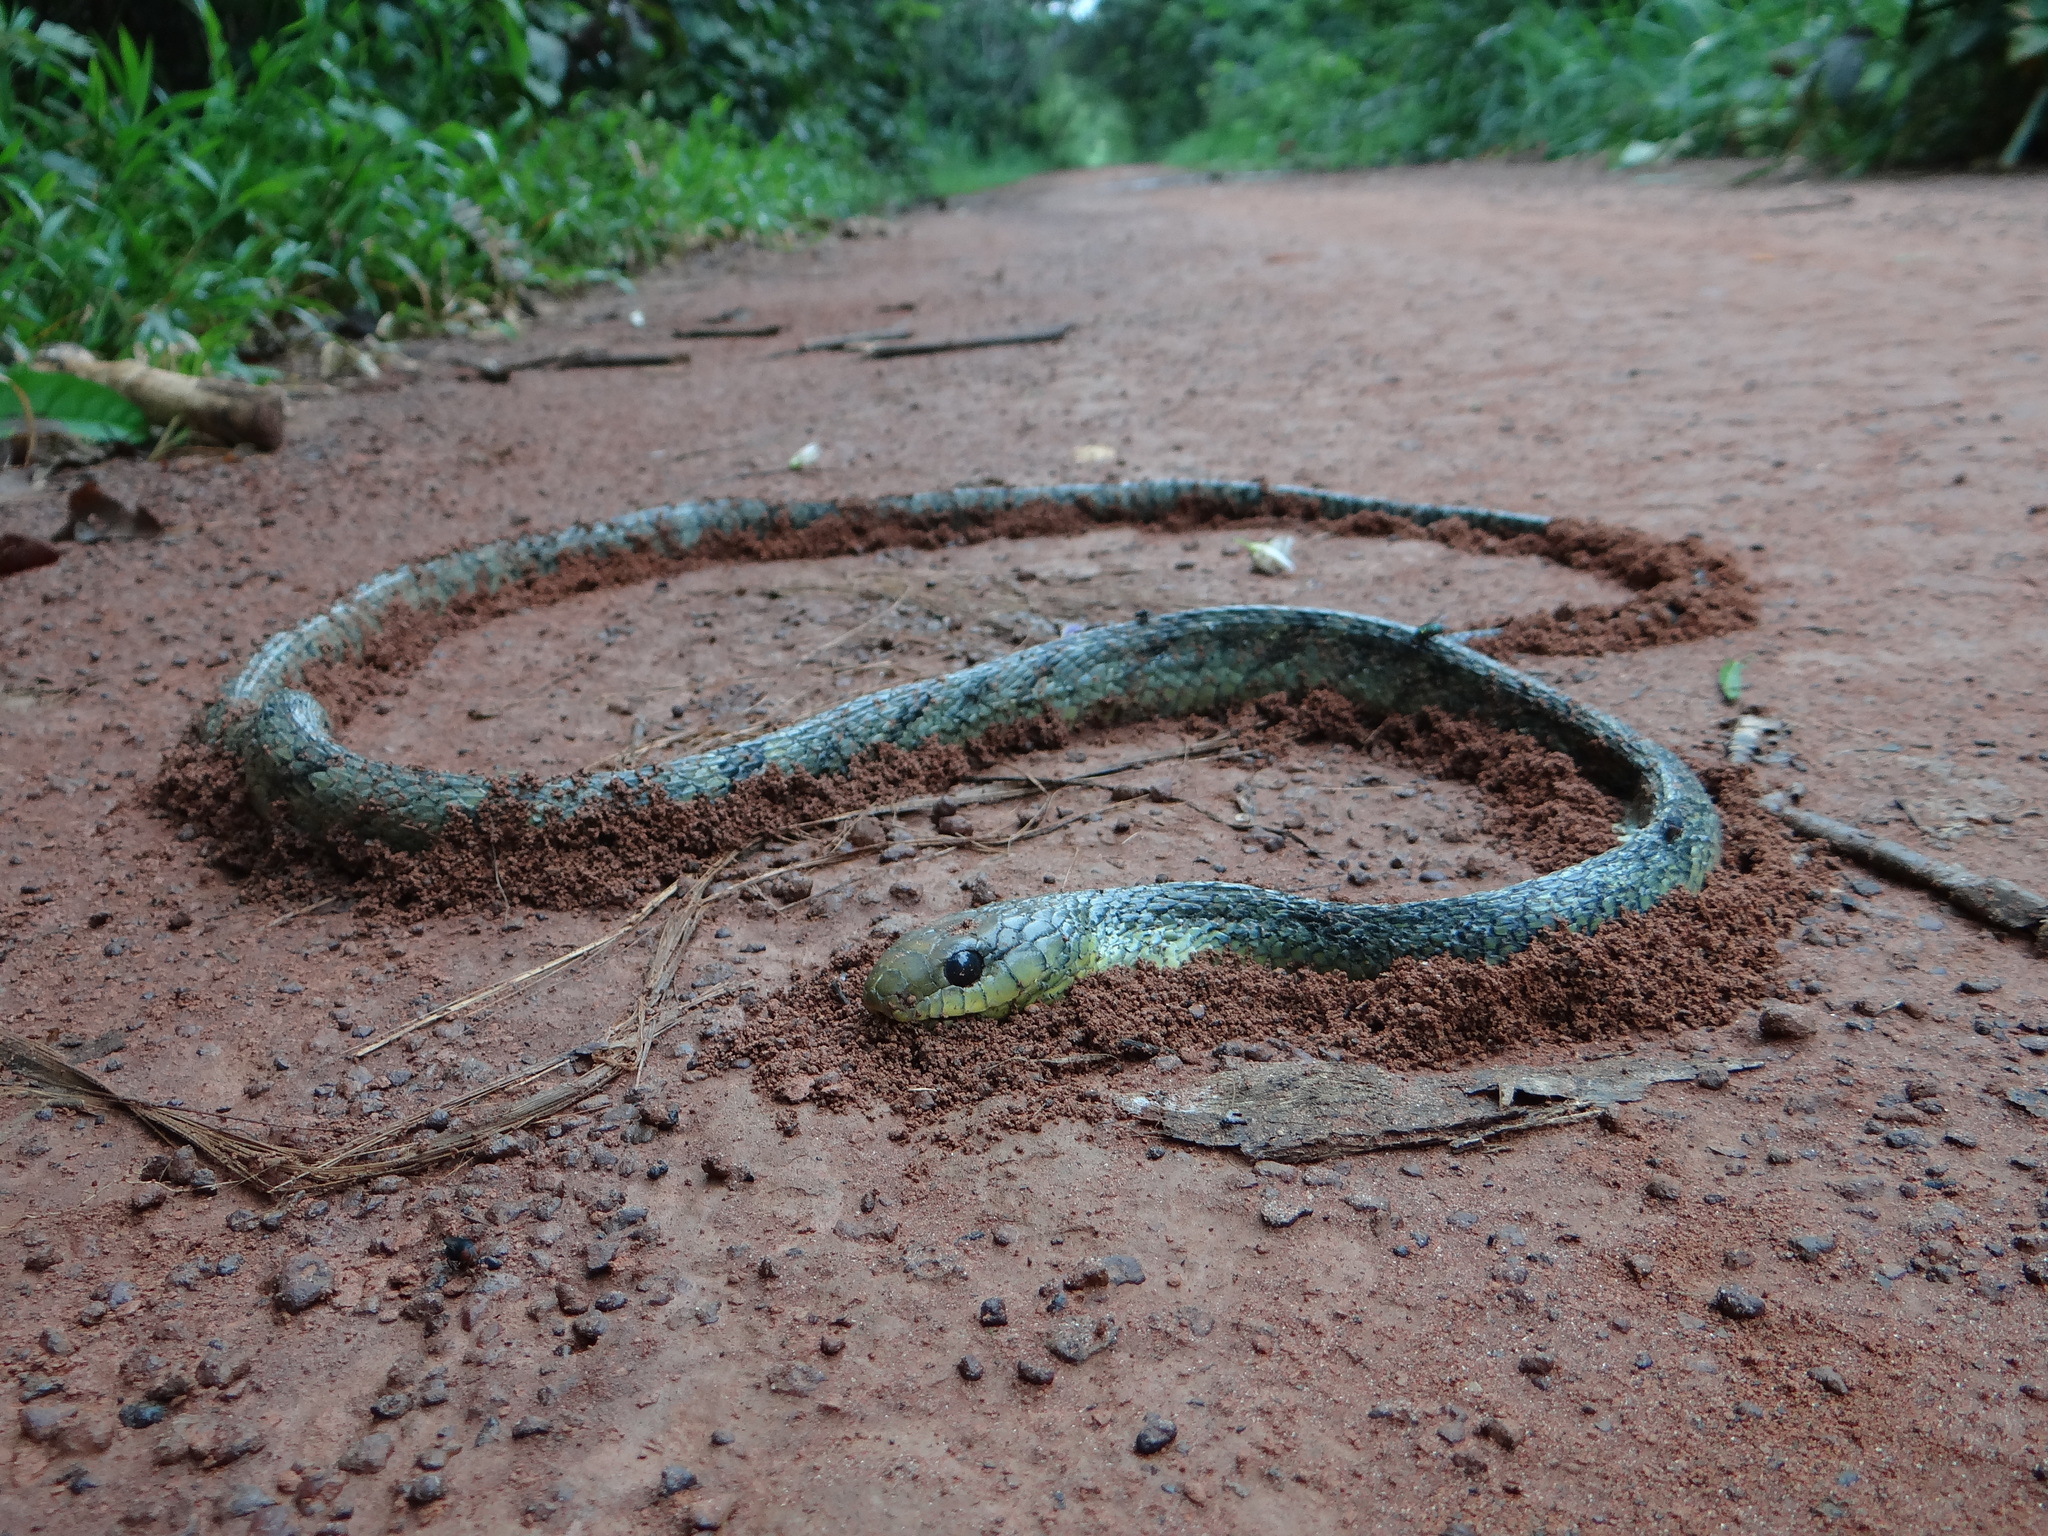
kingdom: Animalia
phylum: Chordata
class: Squamata
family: Colubridae
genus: Spilotes
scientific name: Spilotes sulphureus
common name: Amazon puffing snake
